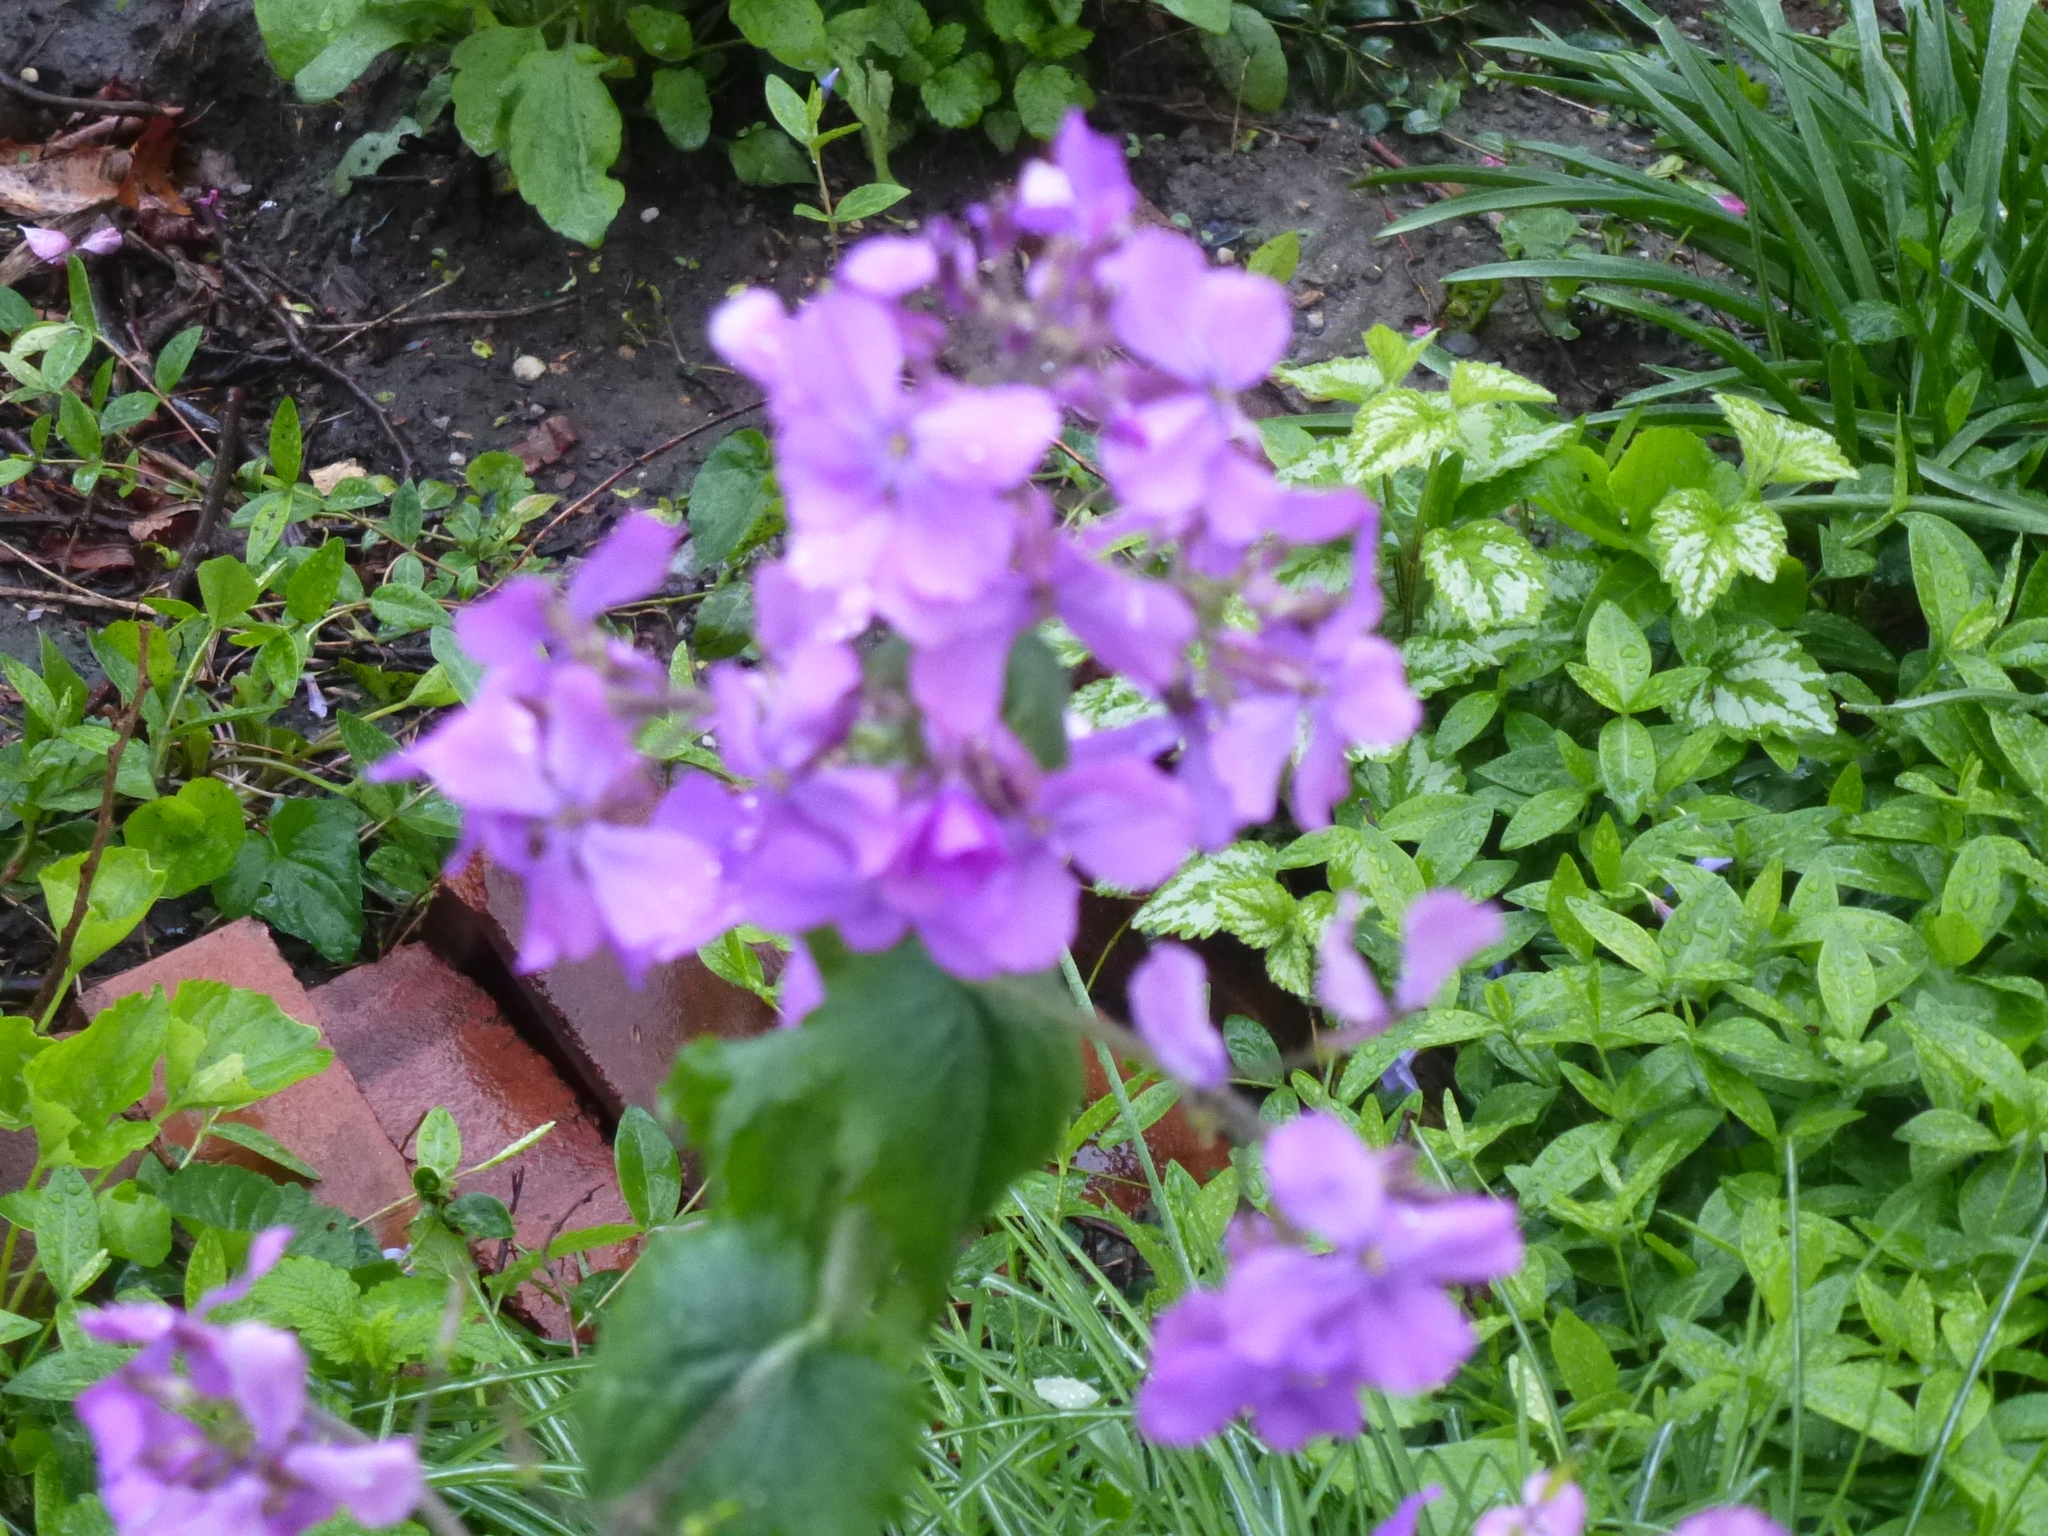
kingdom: Plantae
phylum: Tracheophyta
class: Magnoliopsida
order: Brassicales
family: Brassicaceae
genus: Lunaria
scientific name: Lunaria annua
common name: Honesty
